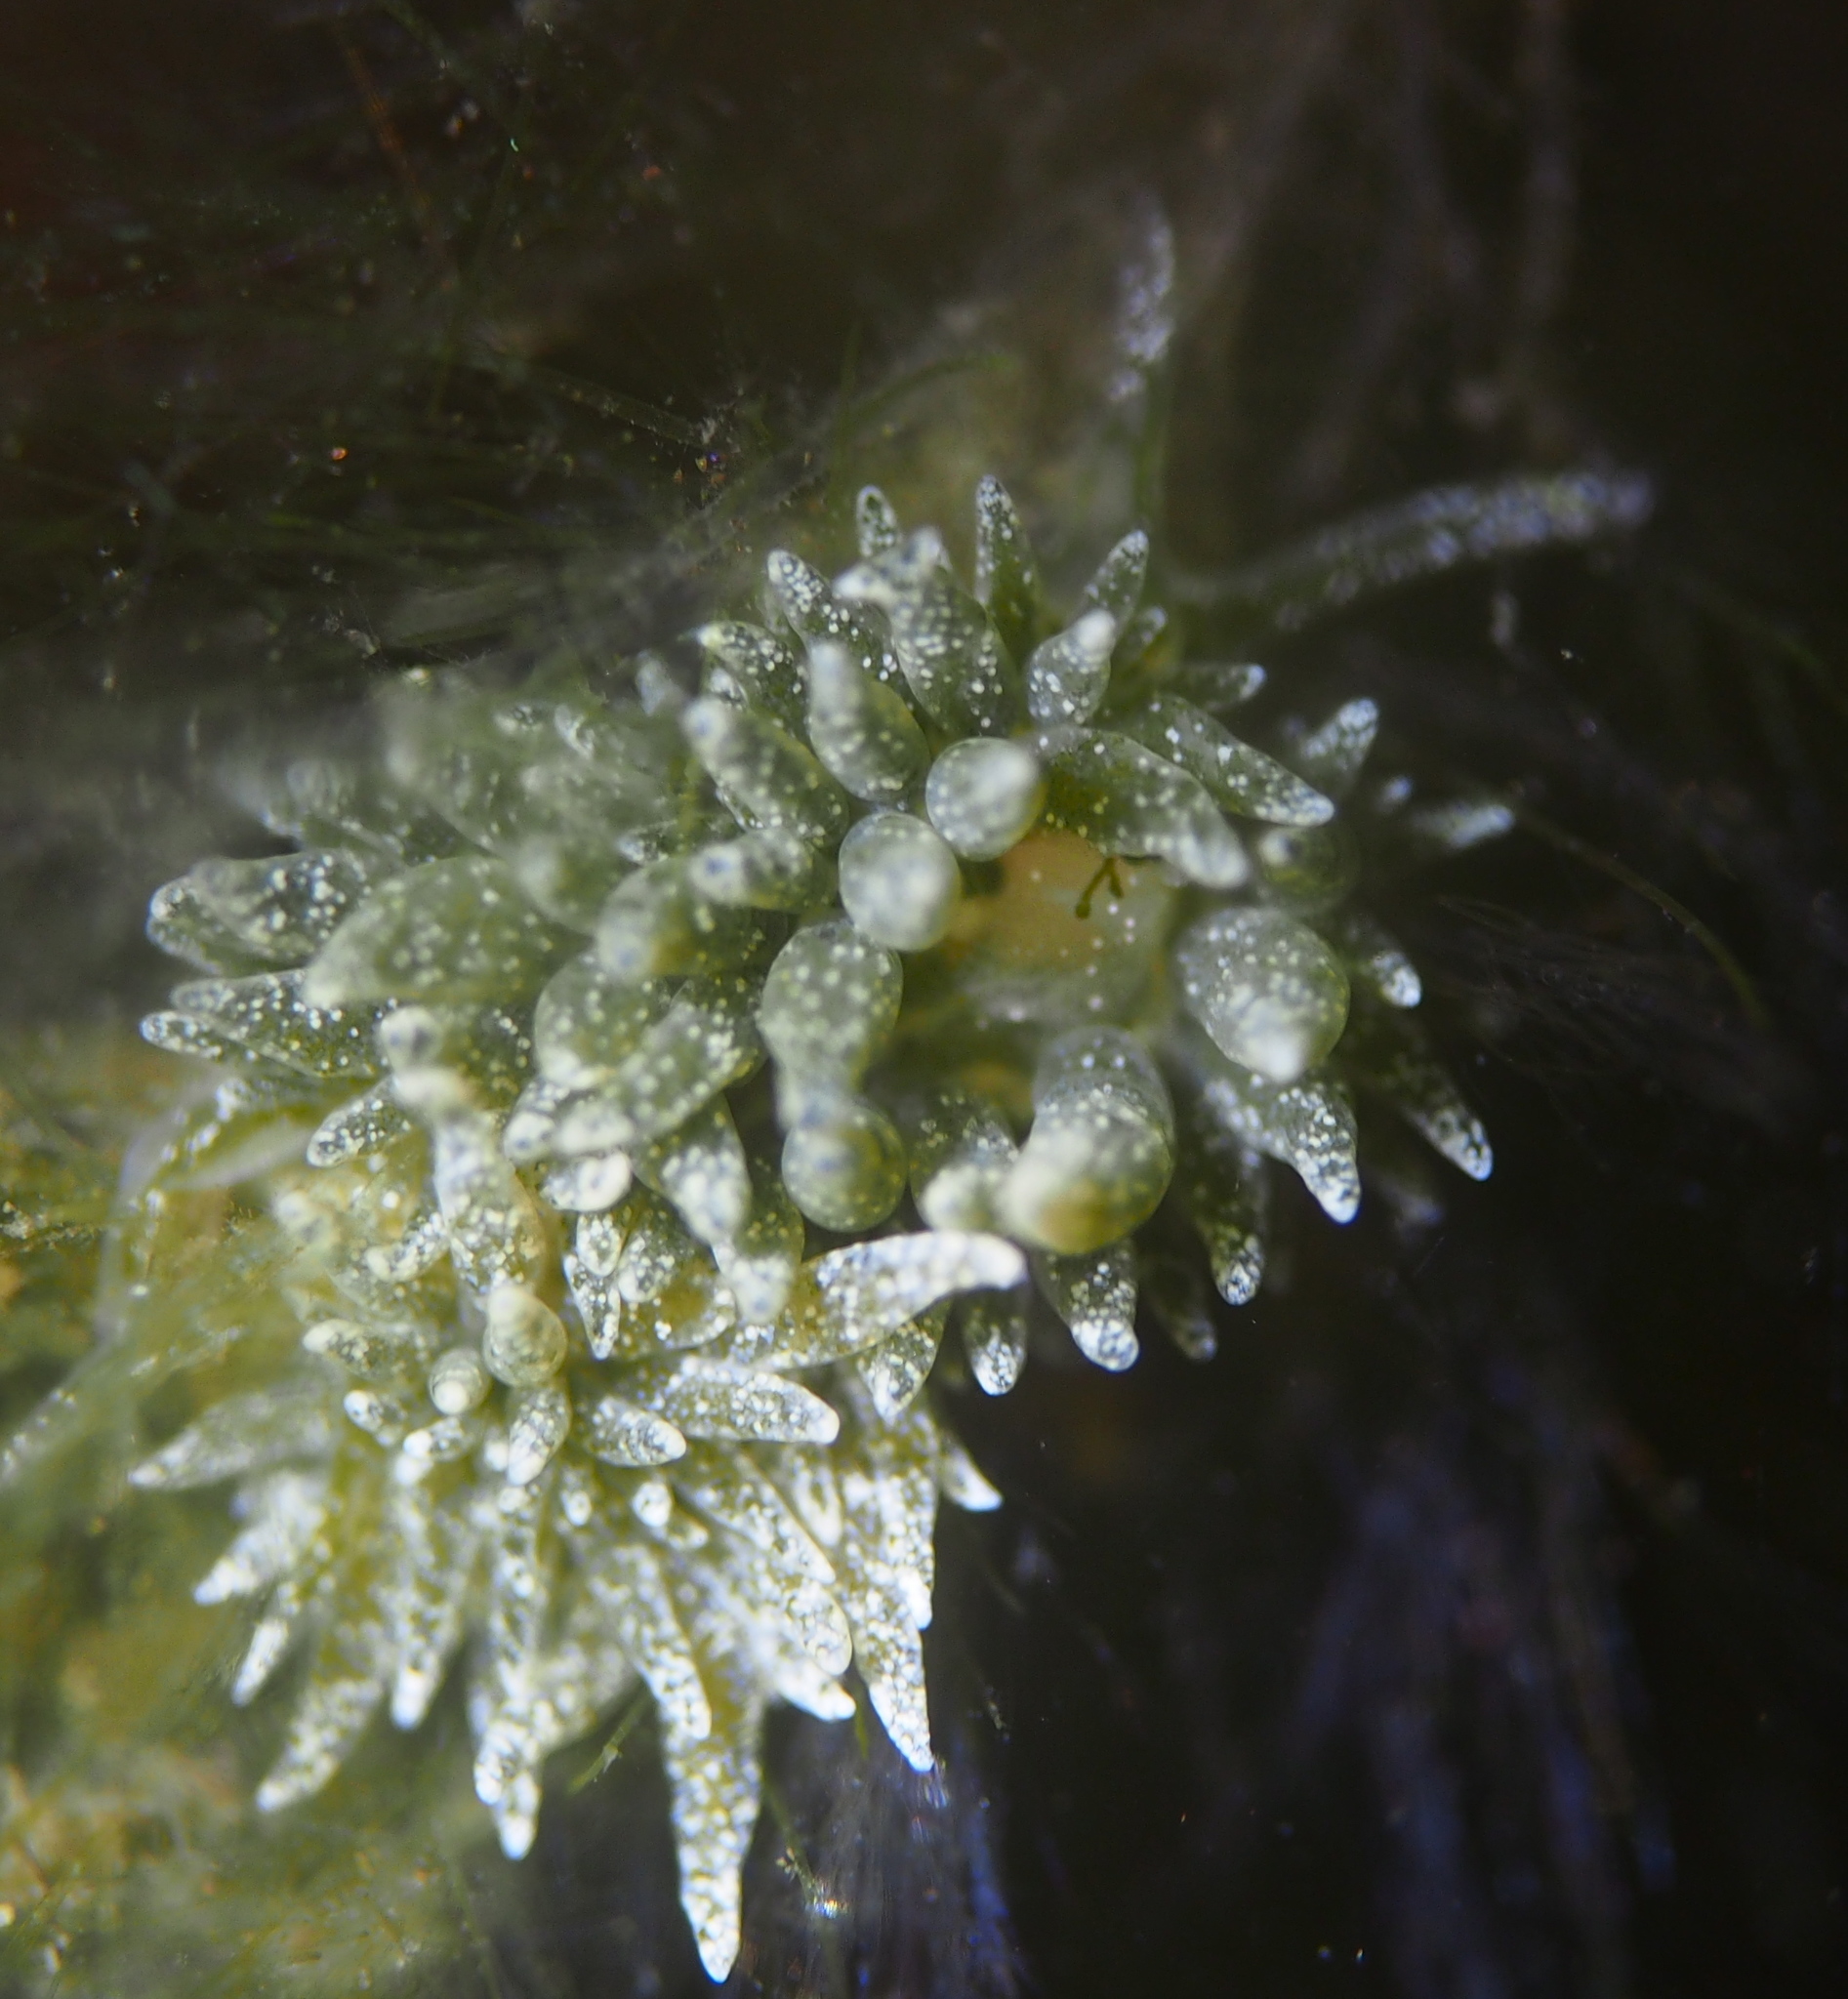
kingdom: Animalia
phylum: Mollusca
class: Gastropoda
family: Limapontiidae
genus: Placida
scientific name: Placida dendritica
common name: Dendritic nudibranch
